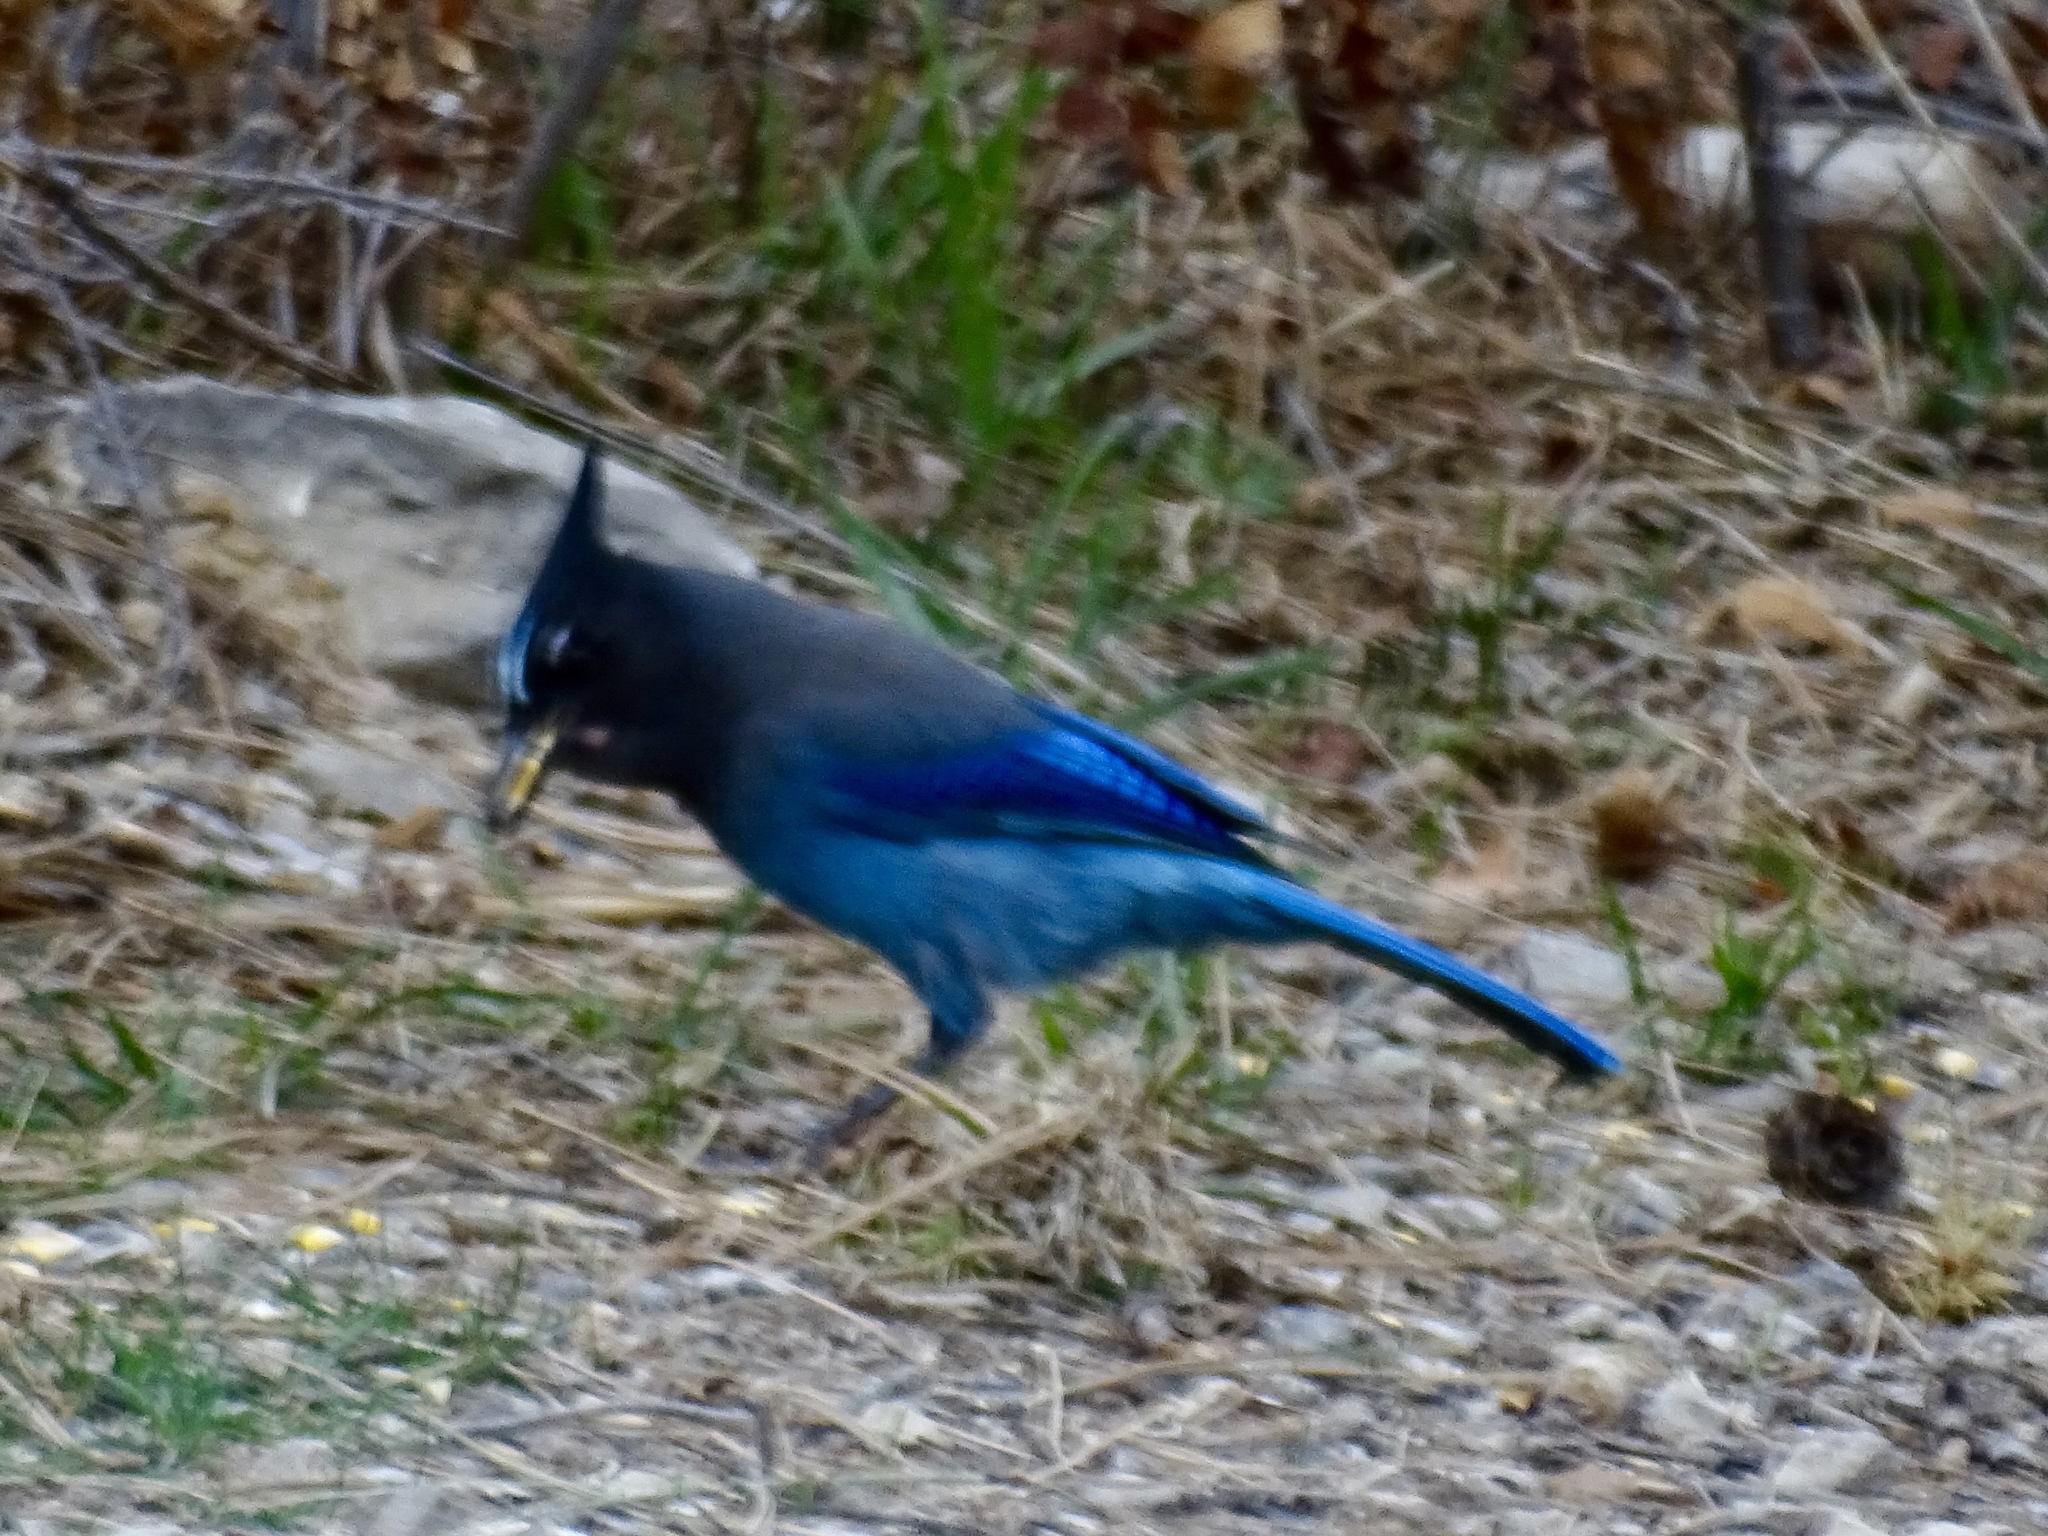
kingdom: Animalia
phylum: Chordata
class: Aves
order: Passeriformes
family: Corvidae
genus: Cyanocitta
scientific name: Cyanocitta stelleri
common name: Steller's jay
